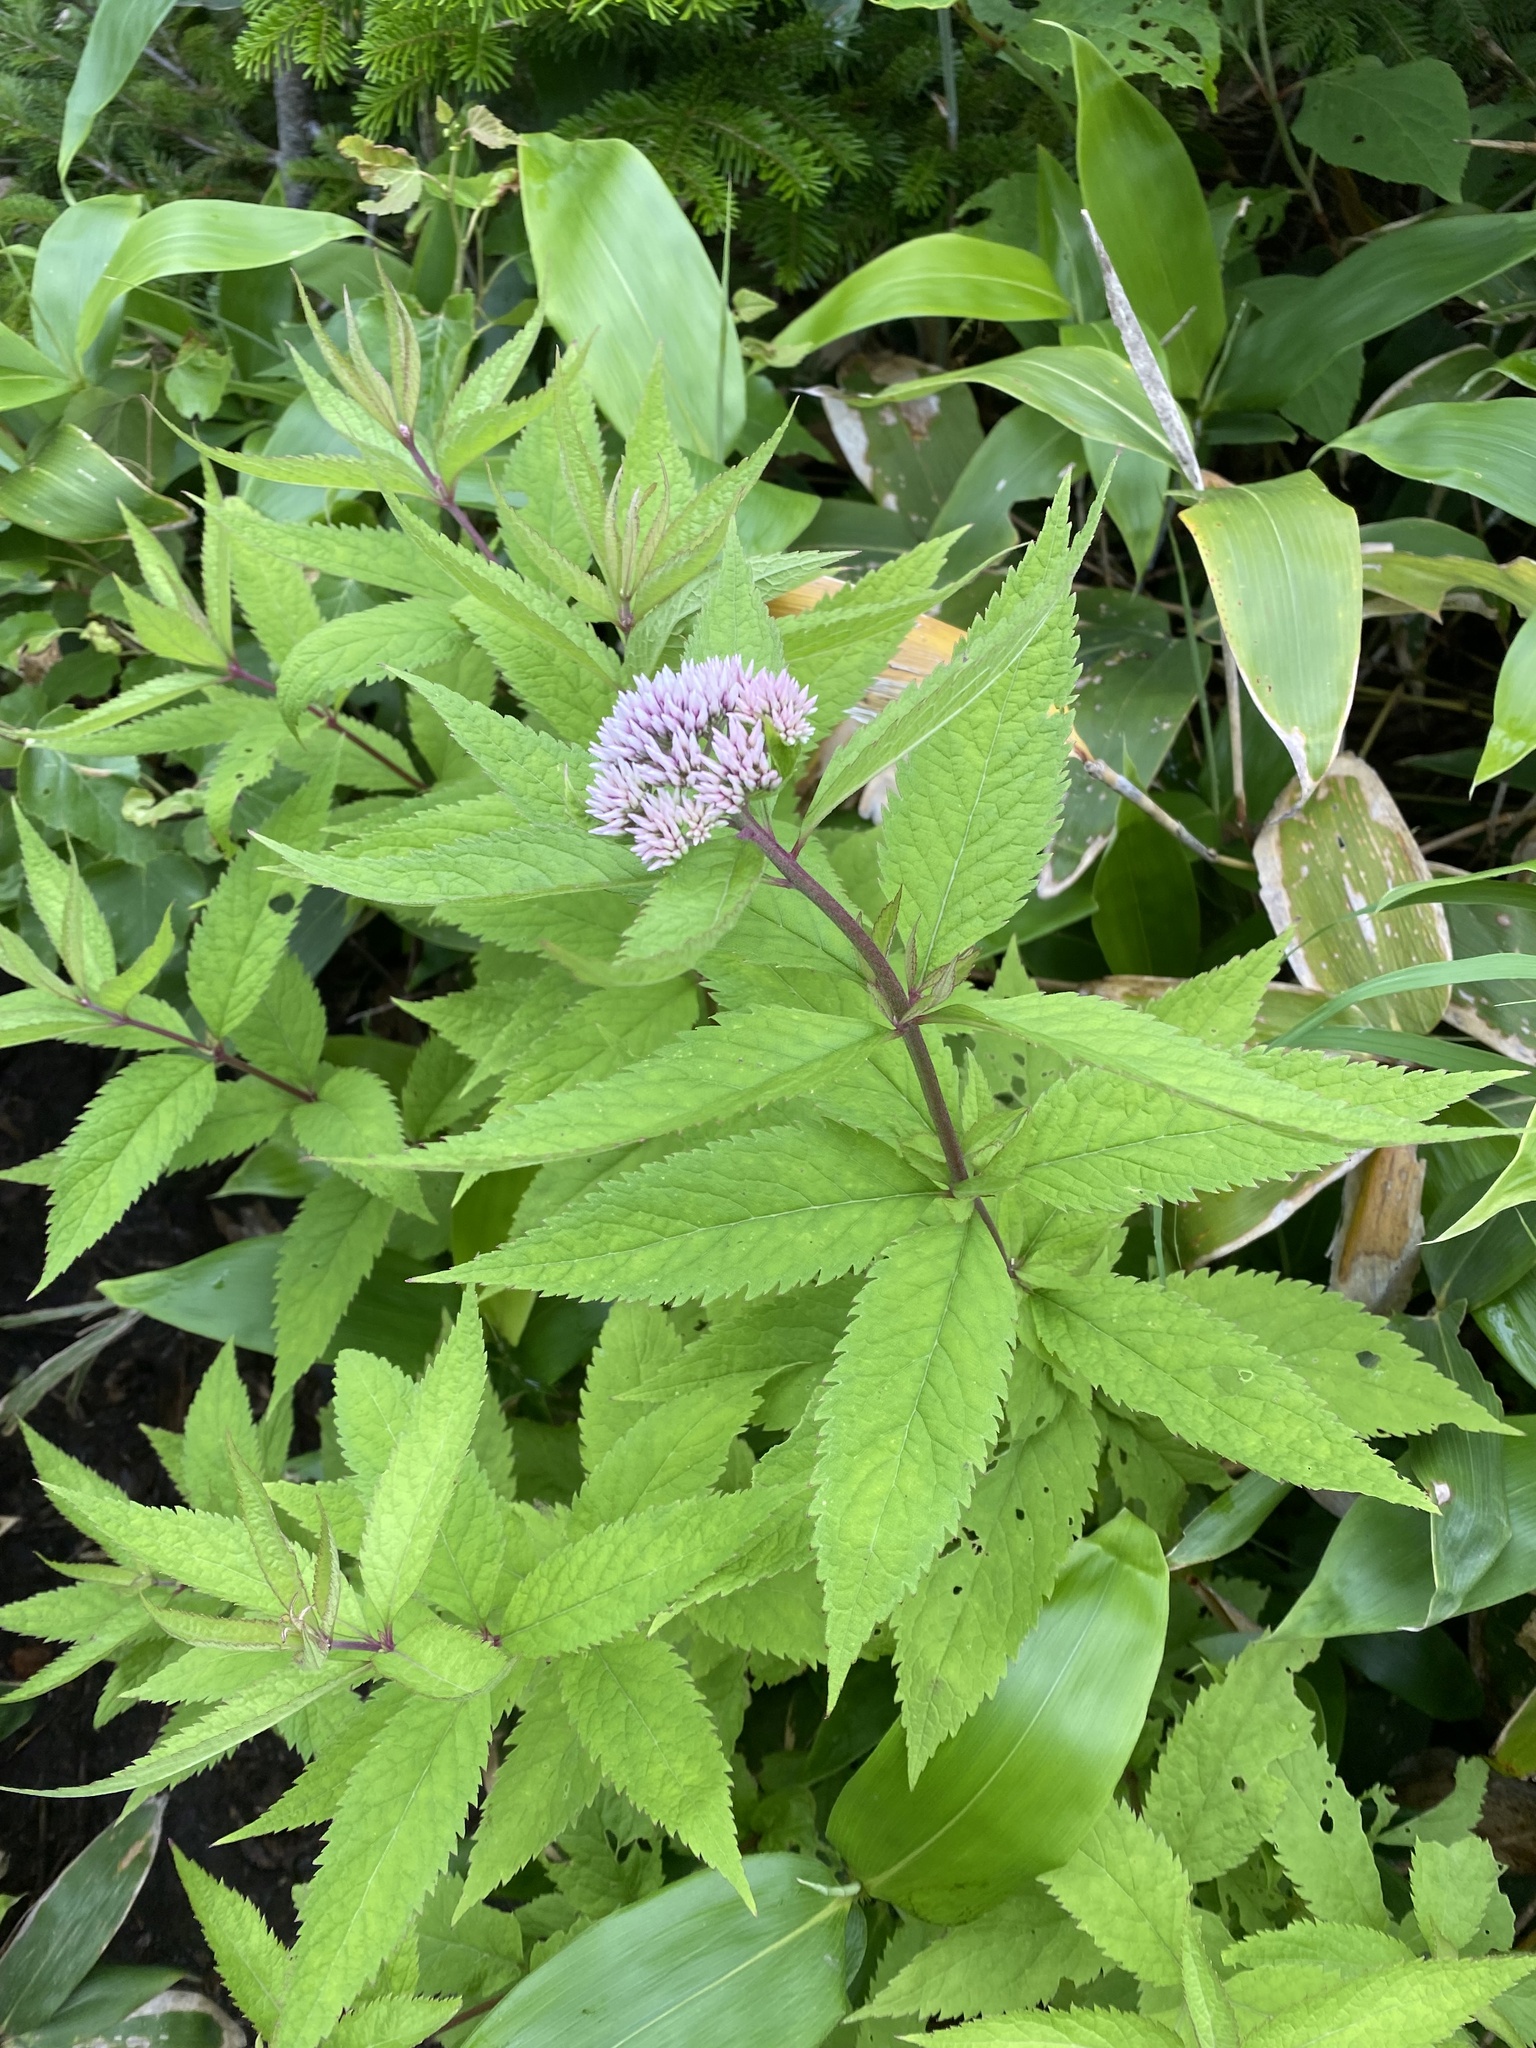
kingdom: Plantae
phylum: Tracheophyta
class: Magnoliopsida
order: Asterales
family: Asteraceae
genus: Eupatorium
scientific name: Eupatorium glehnii
